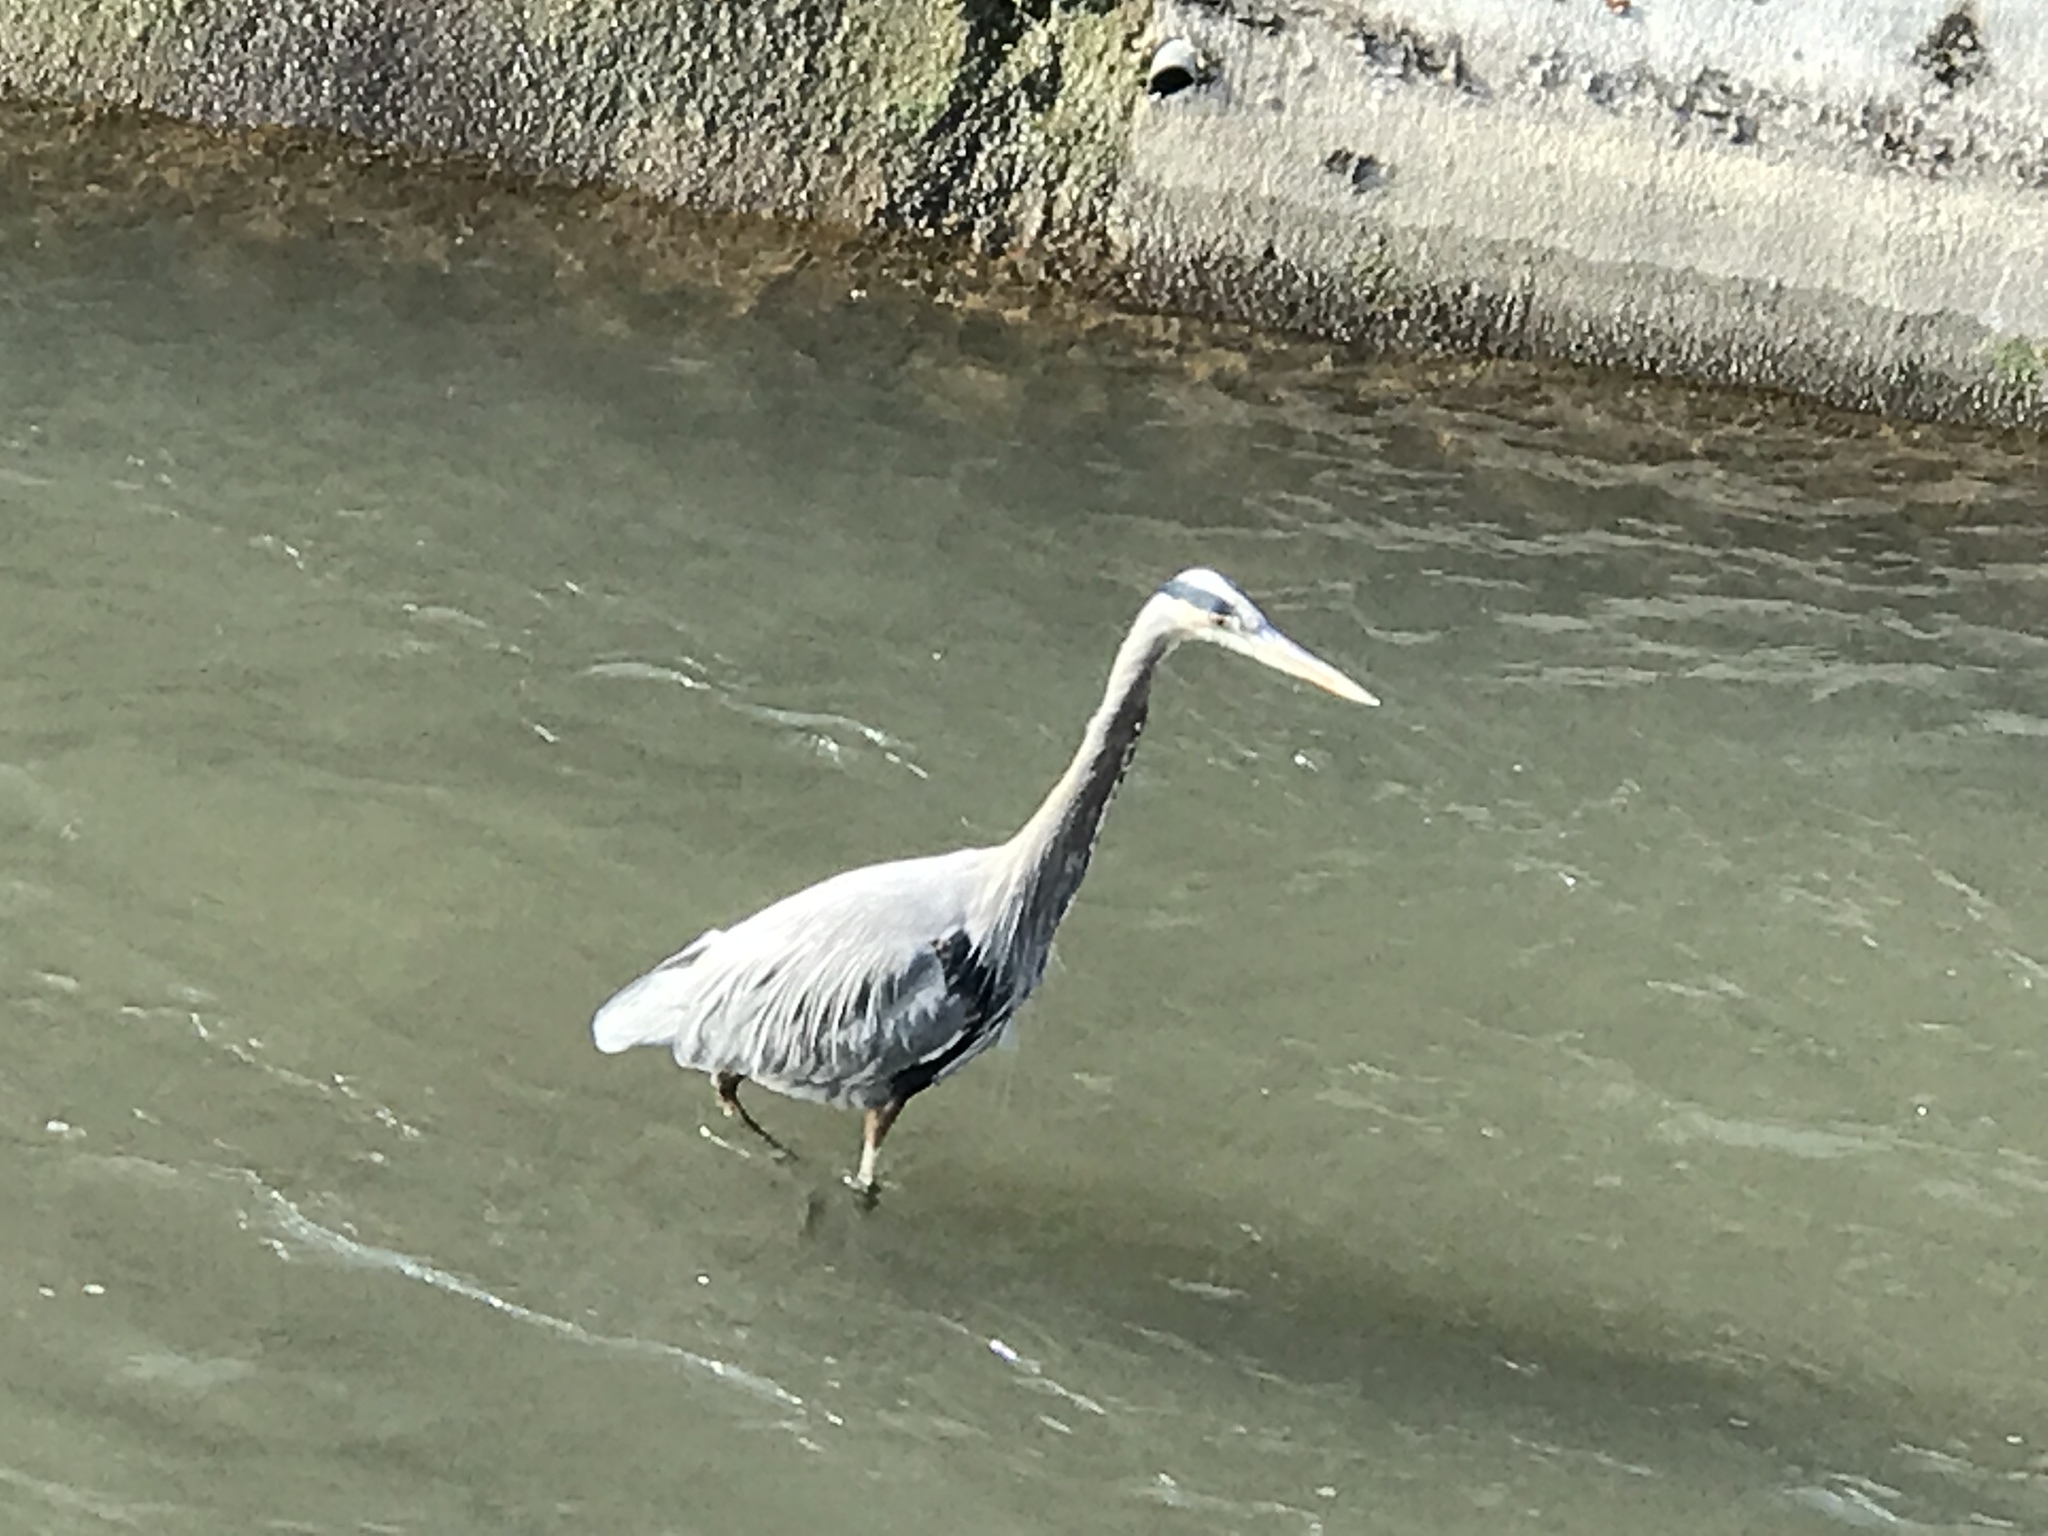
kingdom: Animalia
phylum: Chordata
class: Aves
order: Pelecaniformes
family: Ardeidae
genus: Ardea
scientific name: Ardea herodias
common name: Great blue heron
